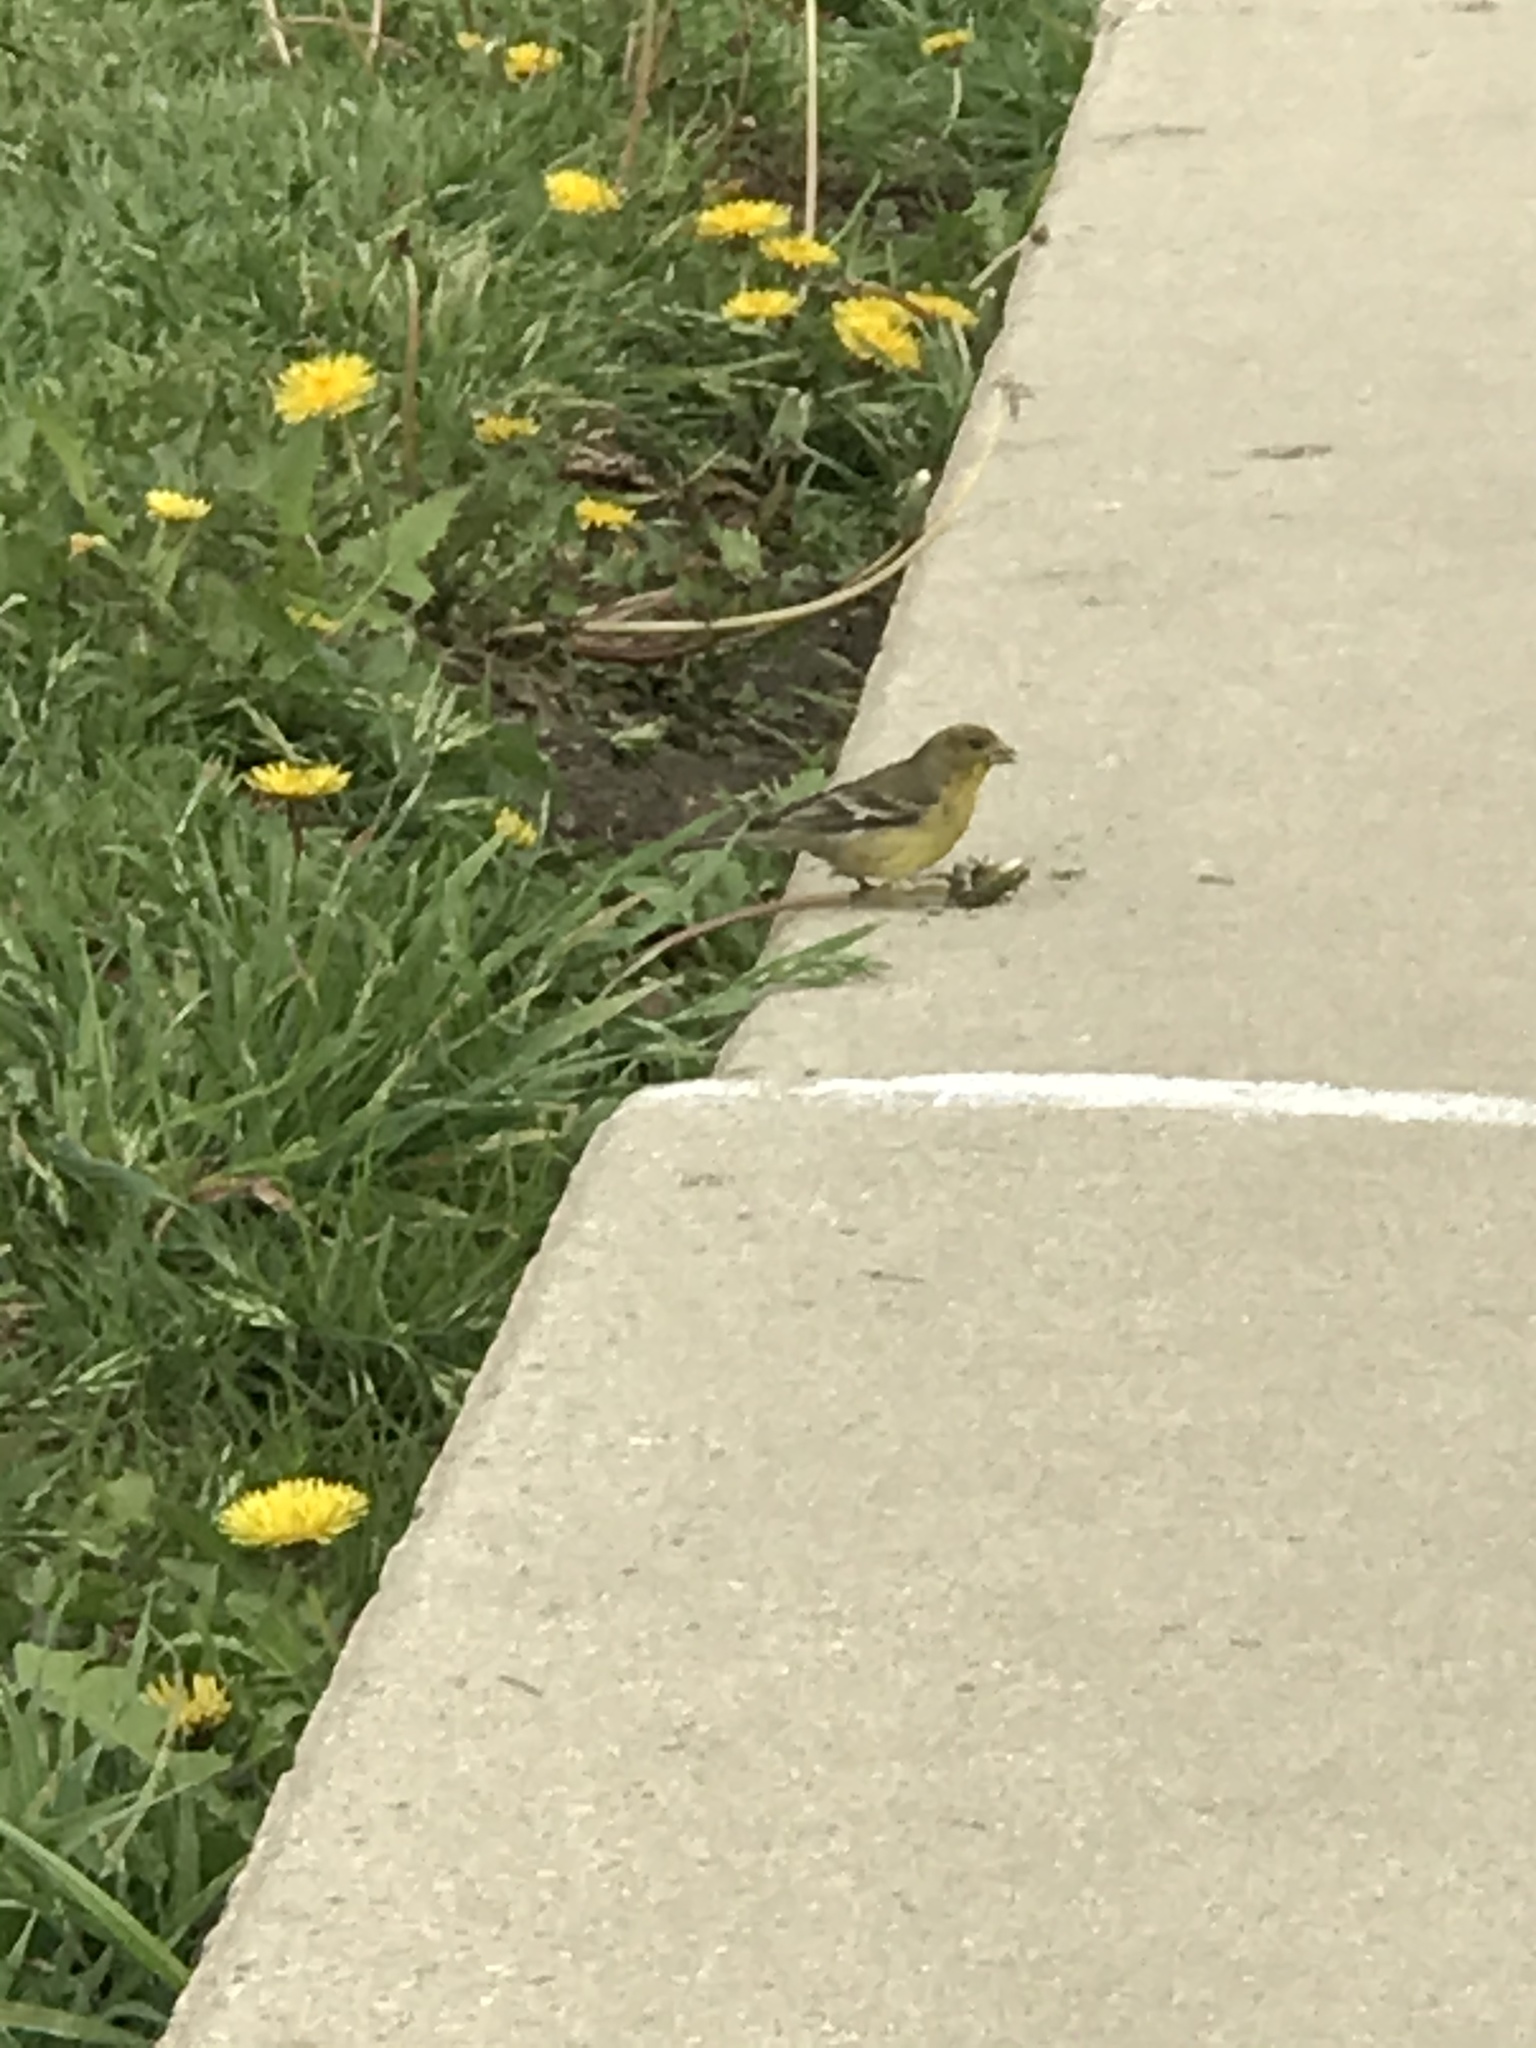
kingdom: Animalia
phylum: Chordata
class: Aves
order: Passeriformes
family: Fringillidae
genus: Spinus
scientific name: Spinus psaltria
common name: Lesser goldfinch
